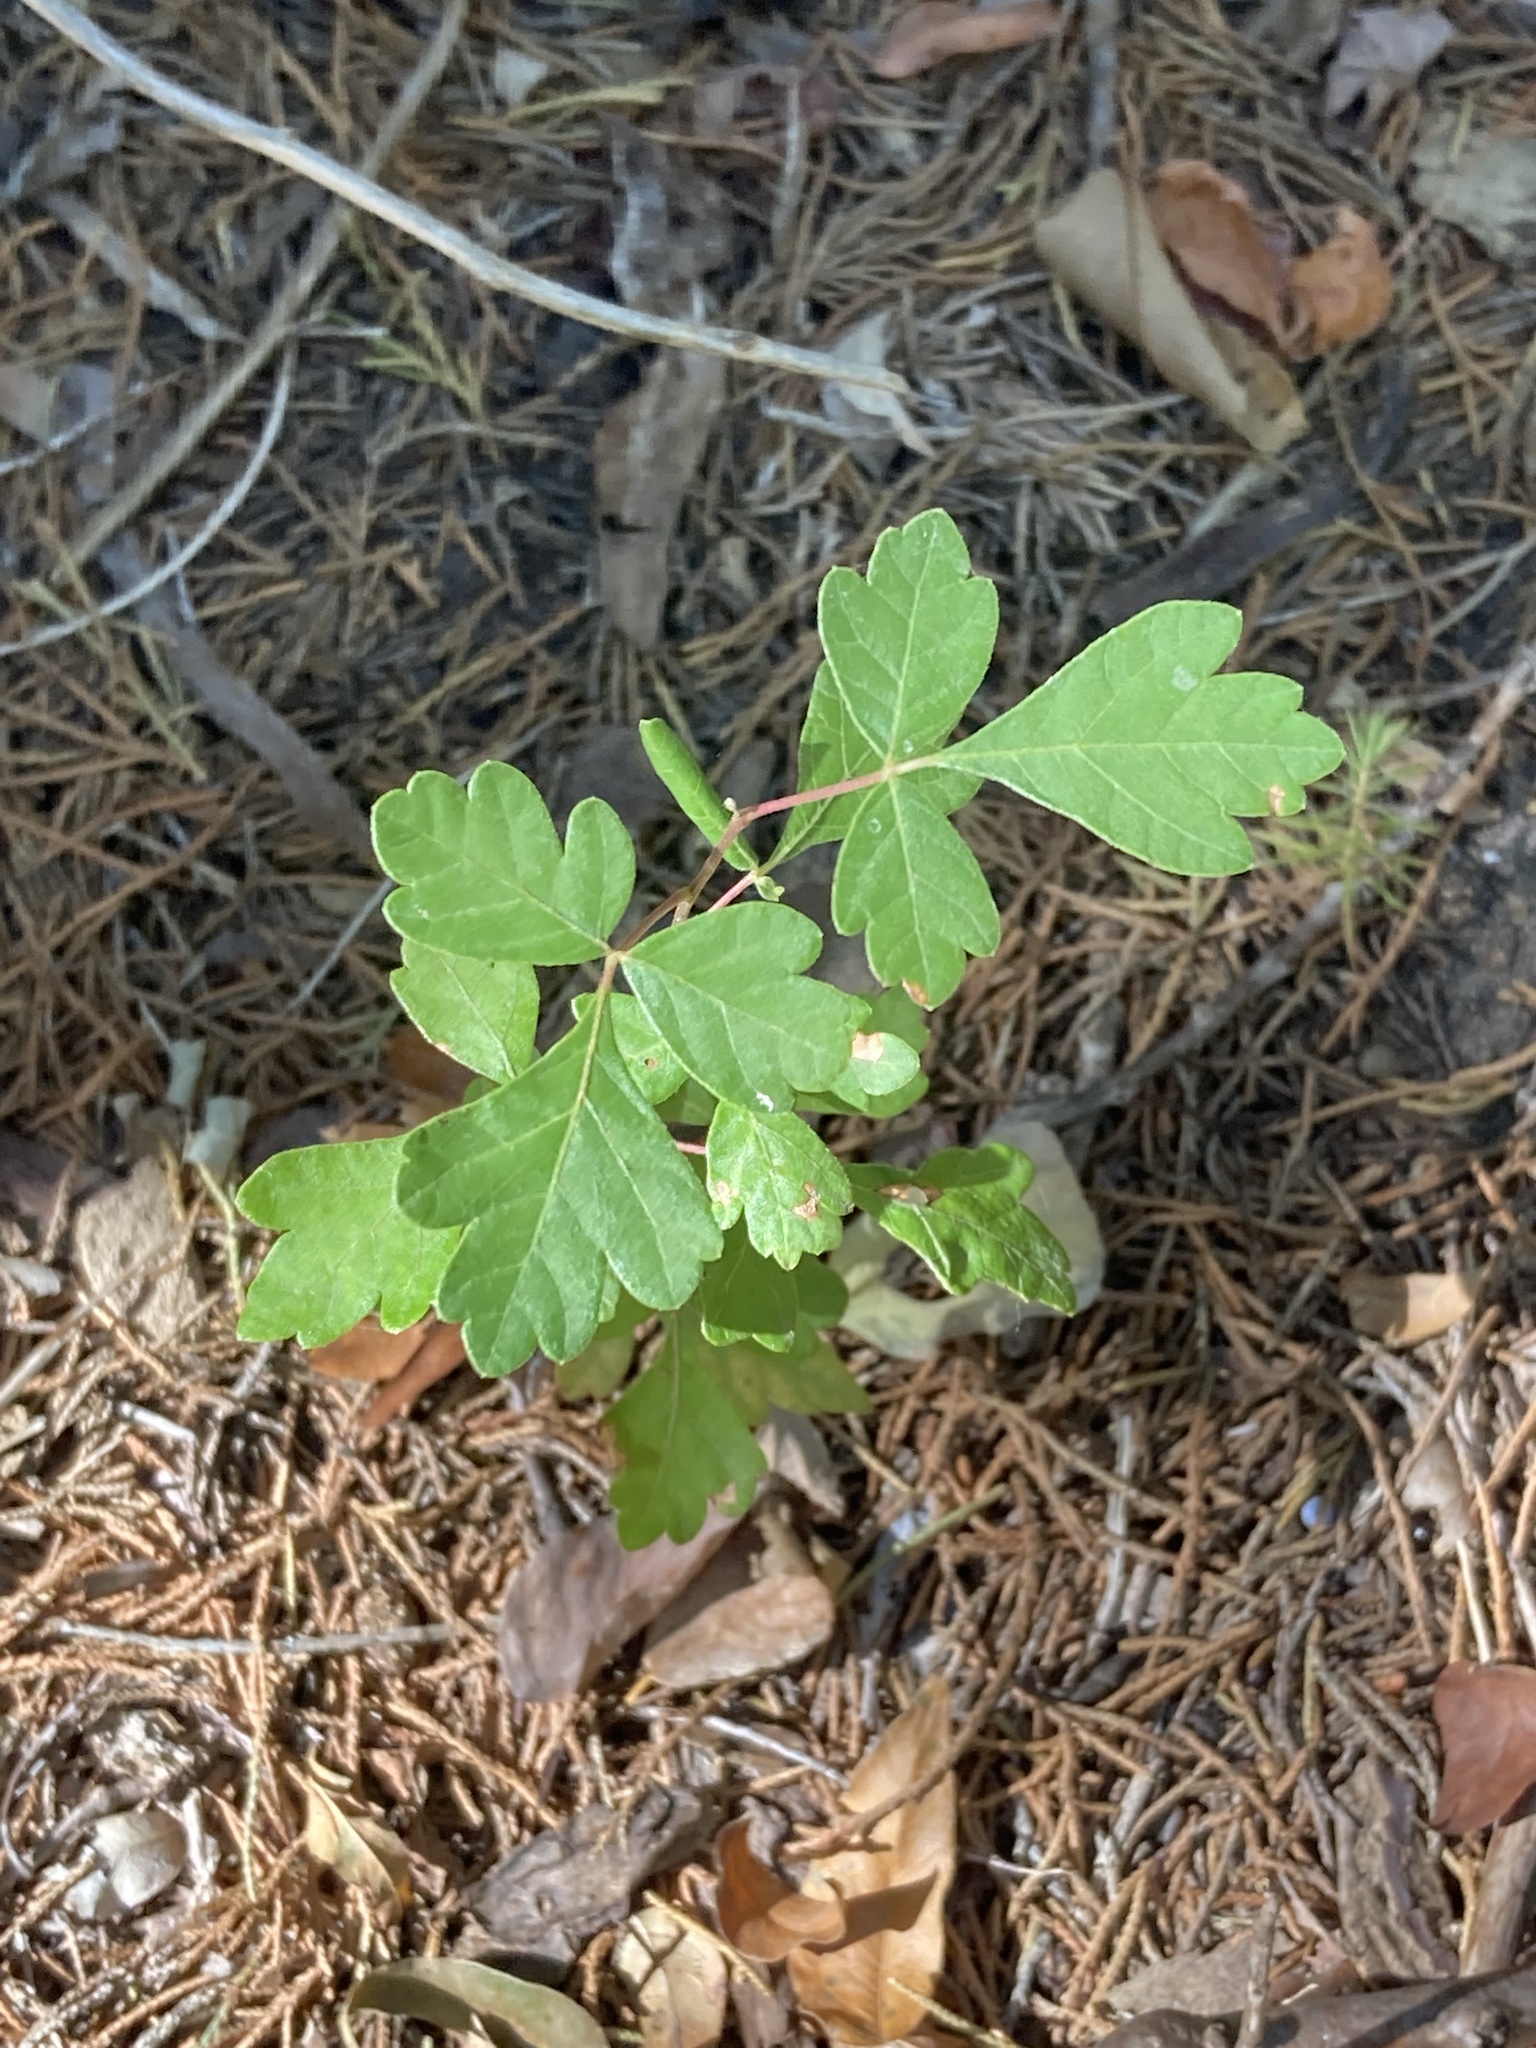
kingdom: Plantae
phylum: Tracheophyta
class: Magnoliopsida
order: Sapindales
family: Anacardiaceae
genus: Rhus
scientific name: Rhus aromatica
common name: Aromatic sumac
